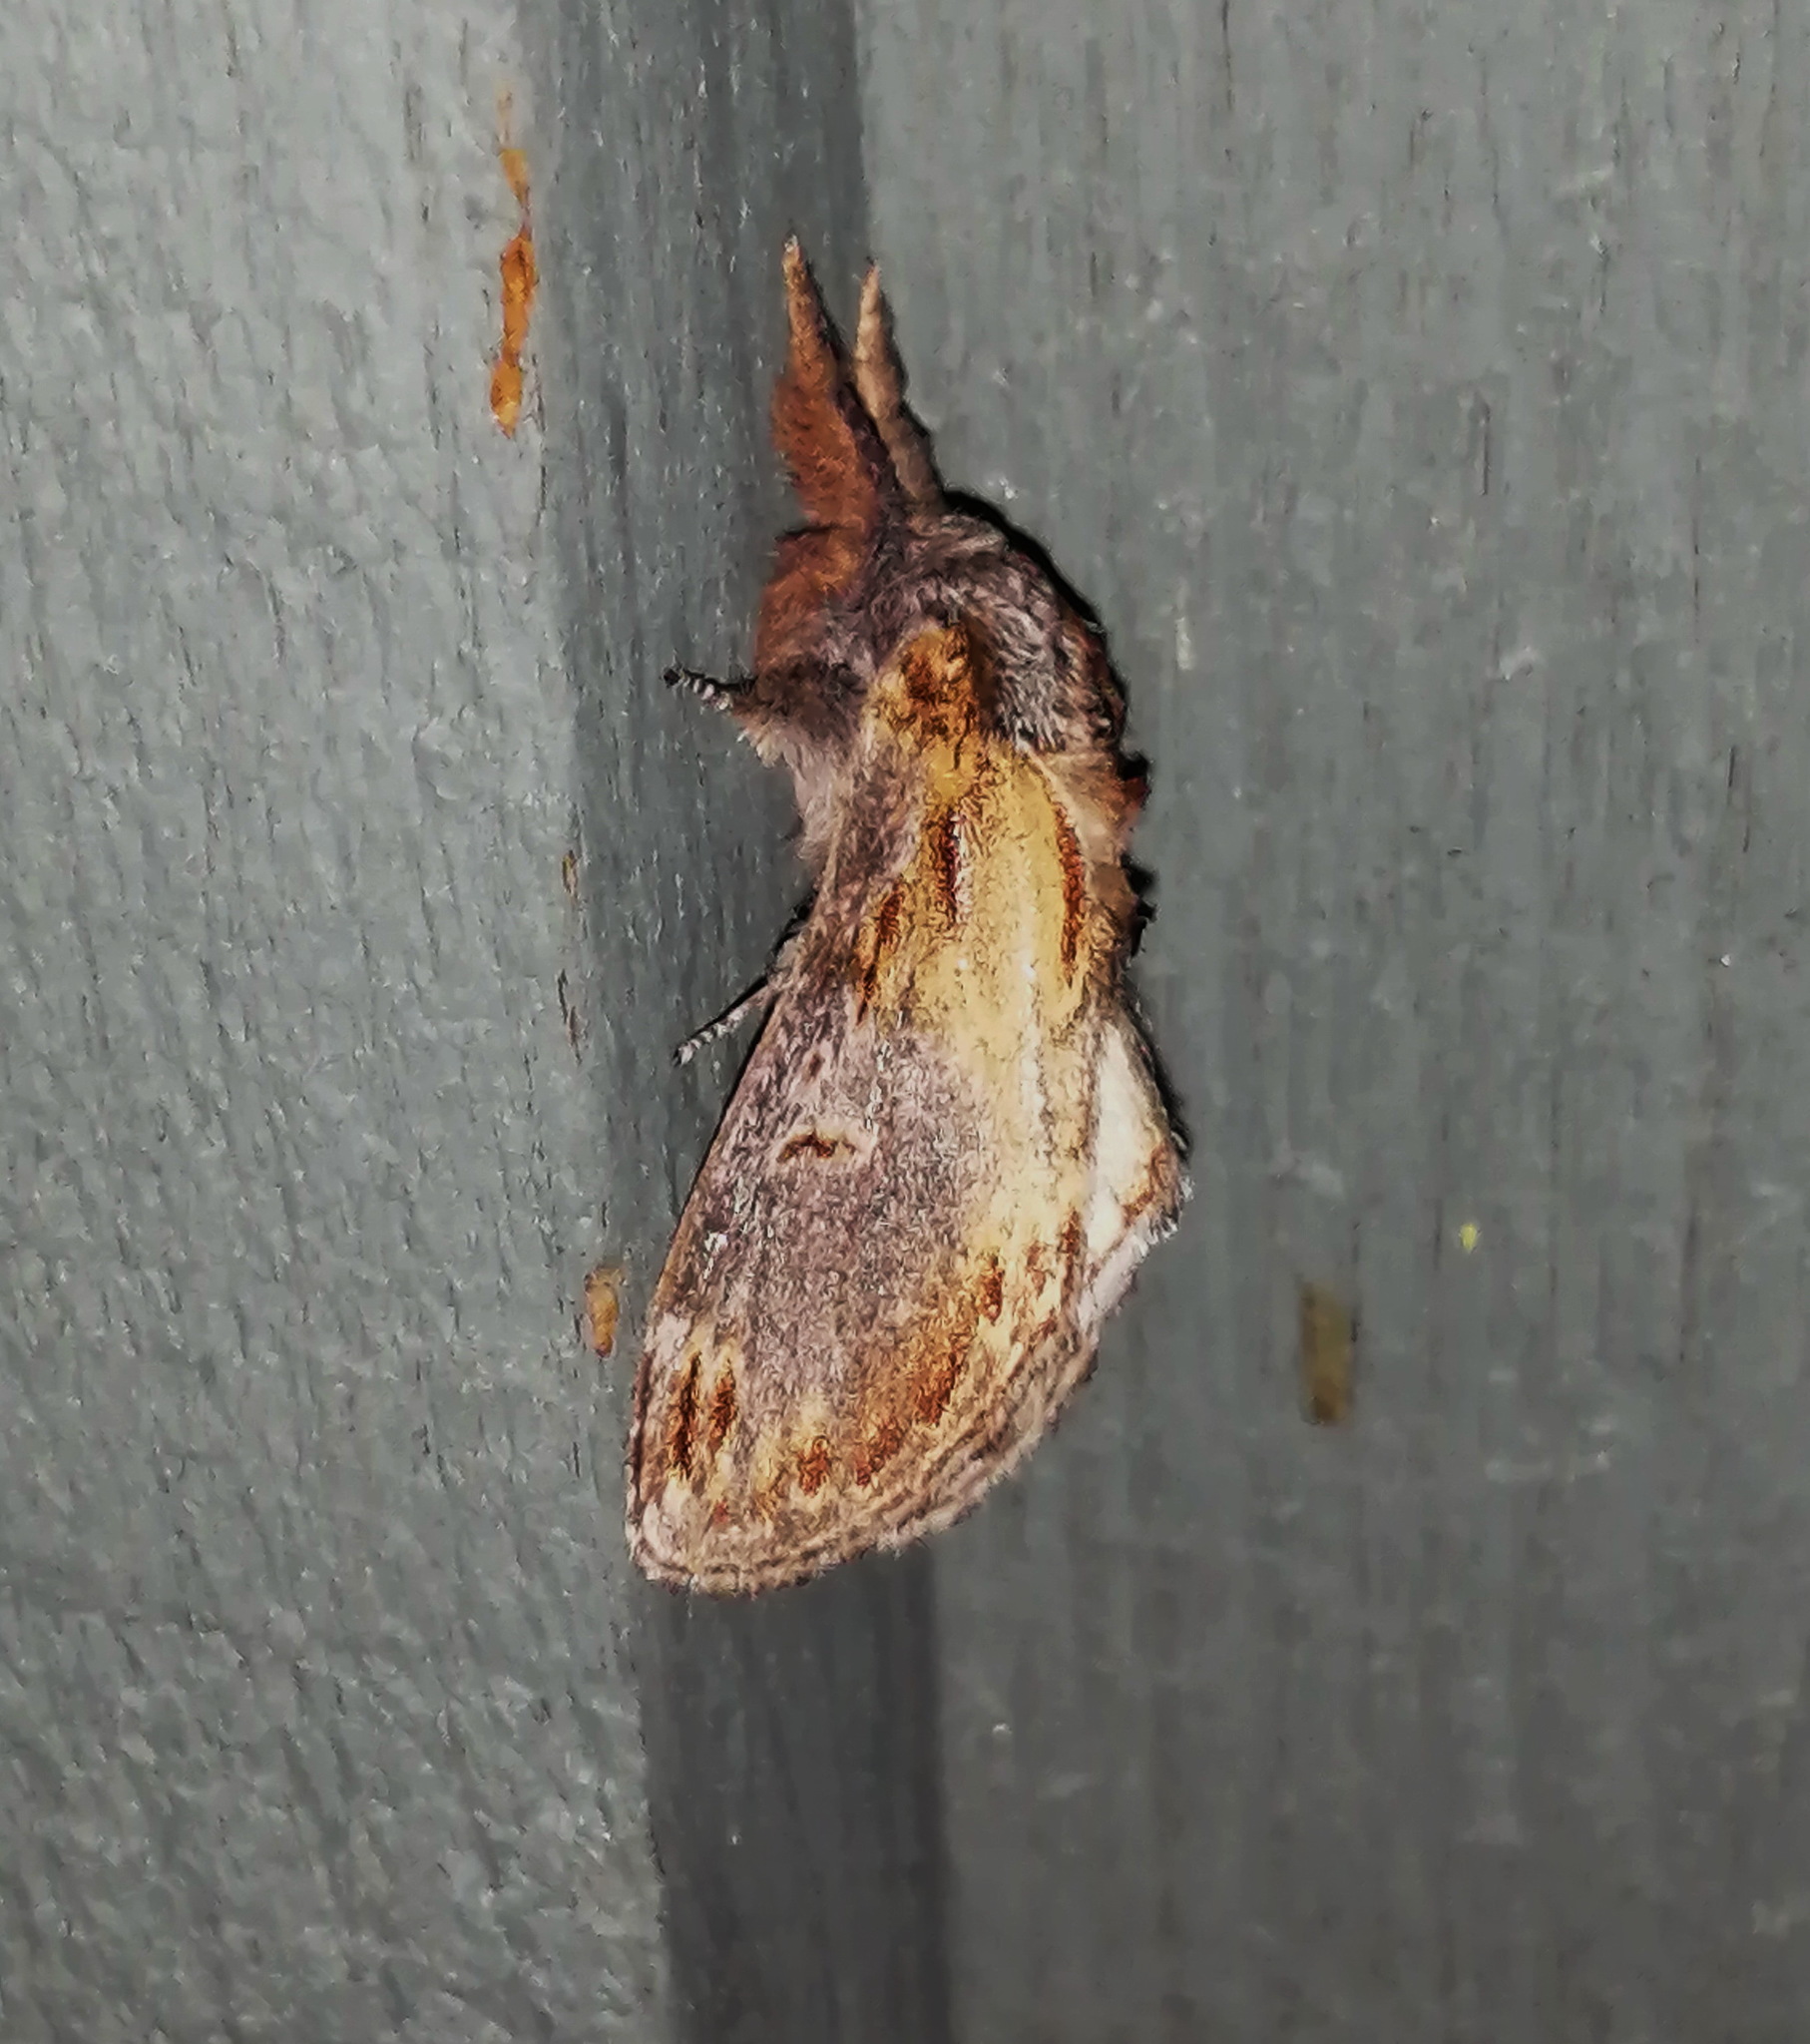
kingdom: Animalia
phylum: Arthropoda
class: Insecta
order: Lepidoptera
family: Notodontidae
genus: Notodonta
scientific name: Notodonta scitipennis
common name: Finned-willow prominent moth
